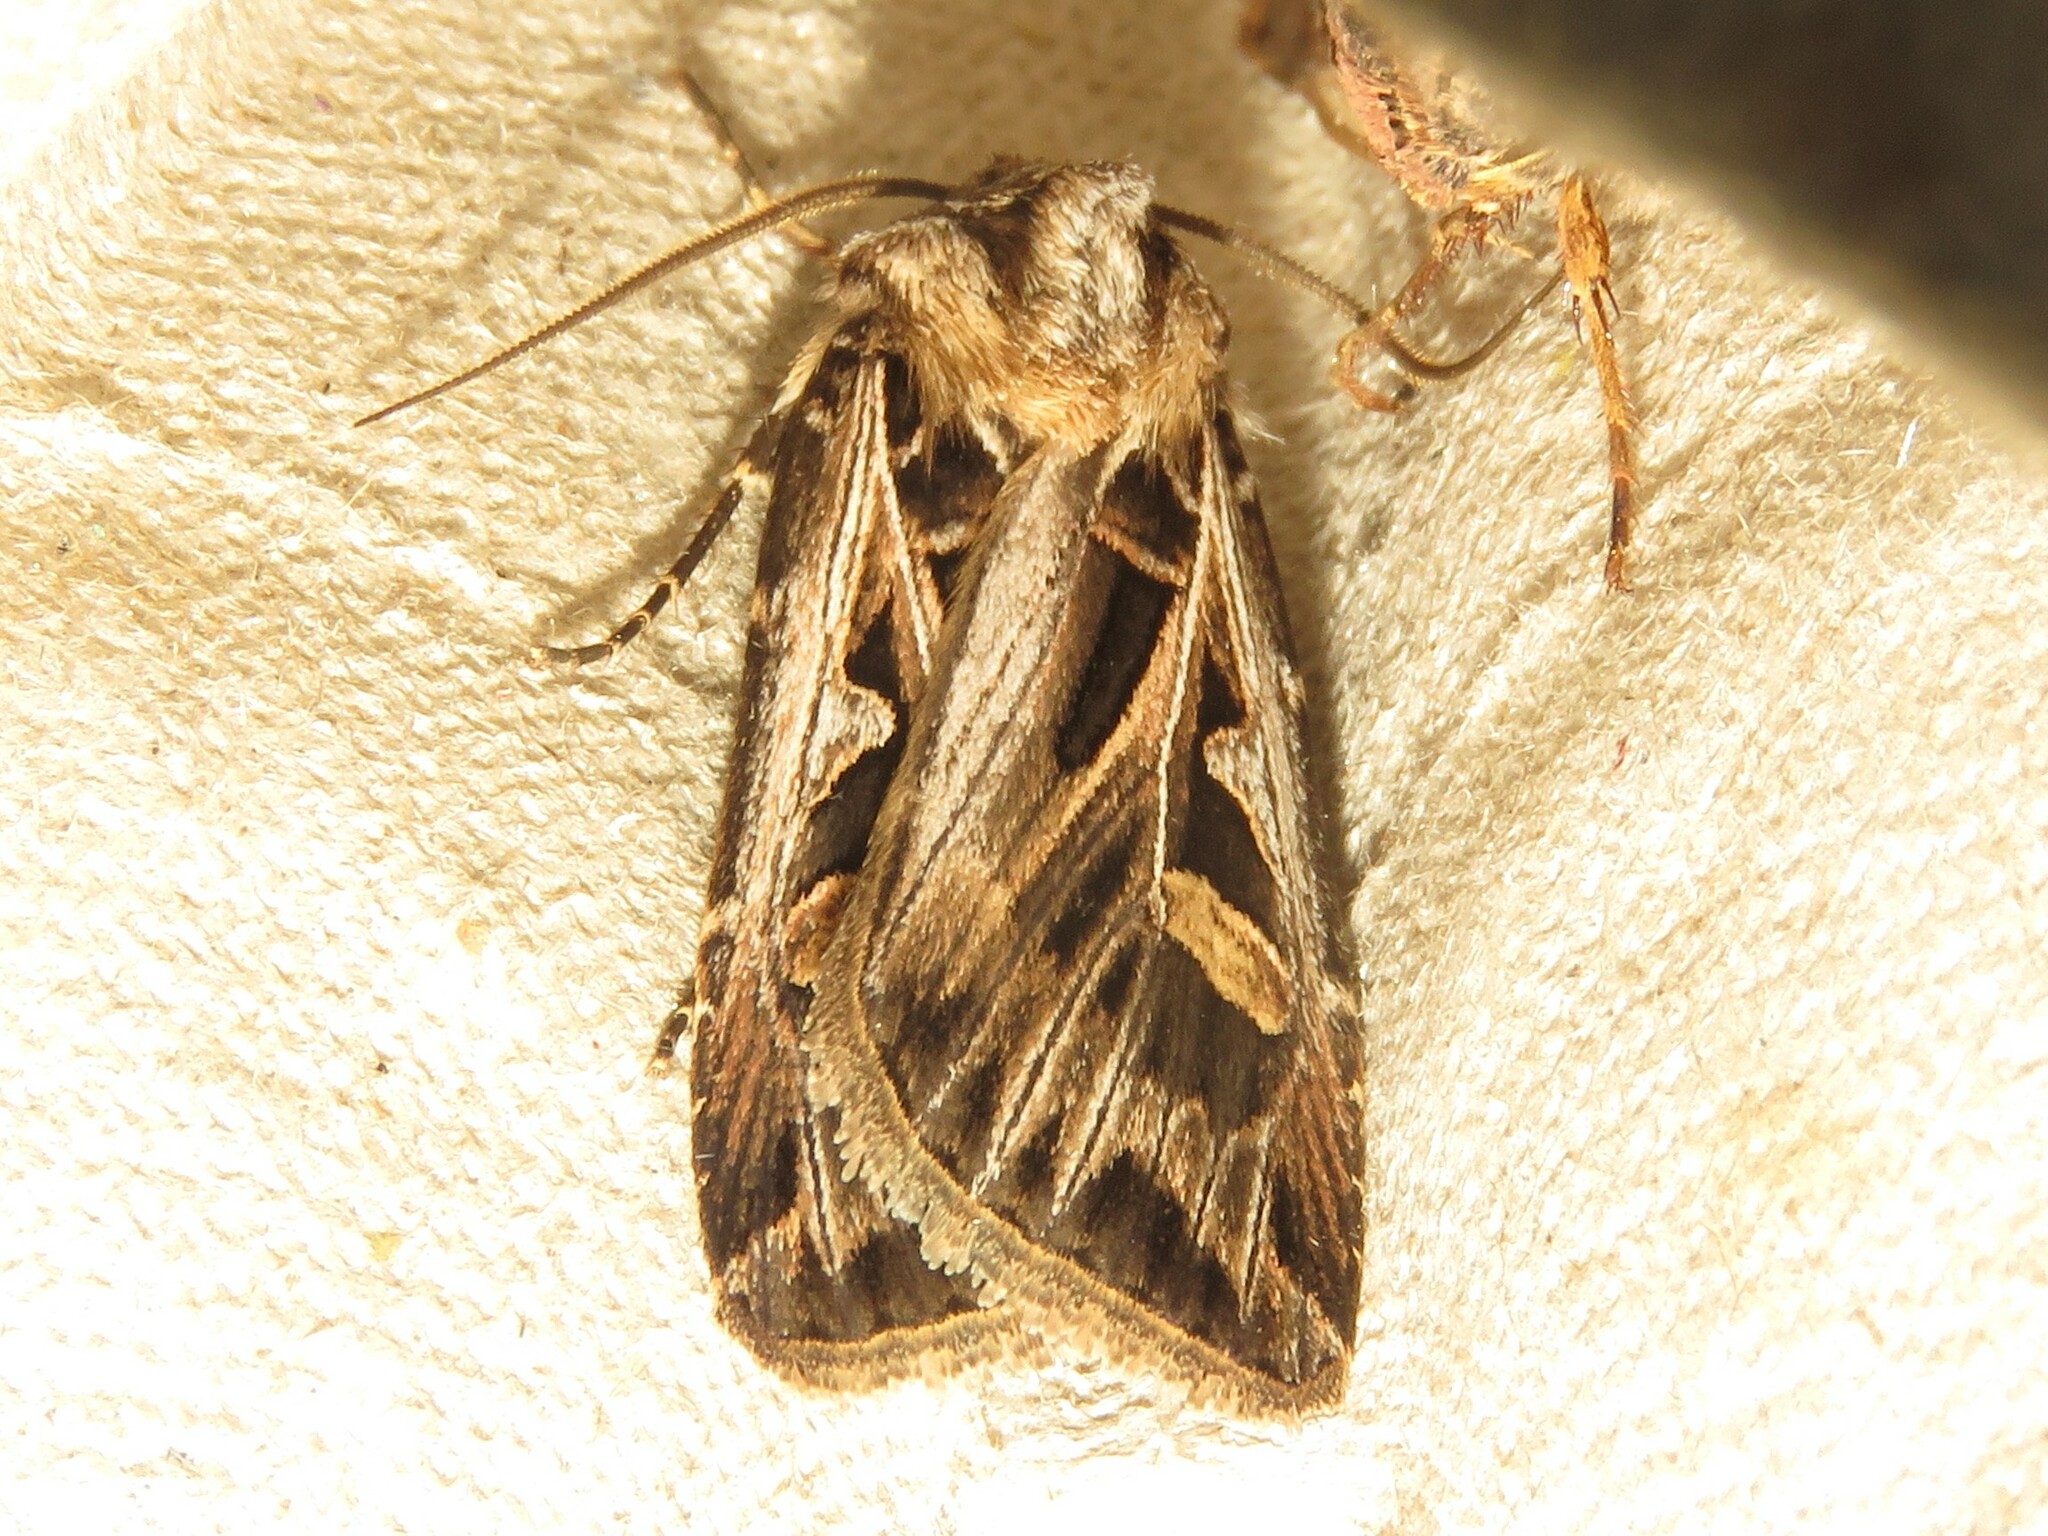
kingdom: Animalia
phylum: Arthropoda
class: Insecta
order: Lepidoptera
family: Noctuidae
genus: Feltia
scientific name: Feltia jaculifera
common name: Dingy cutworm moth
